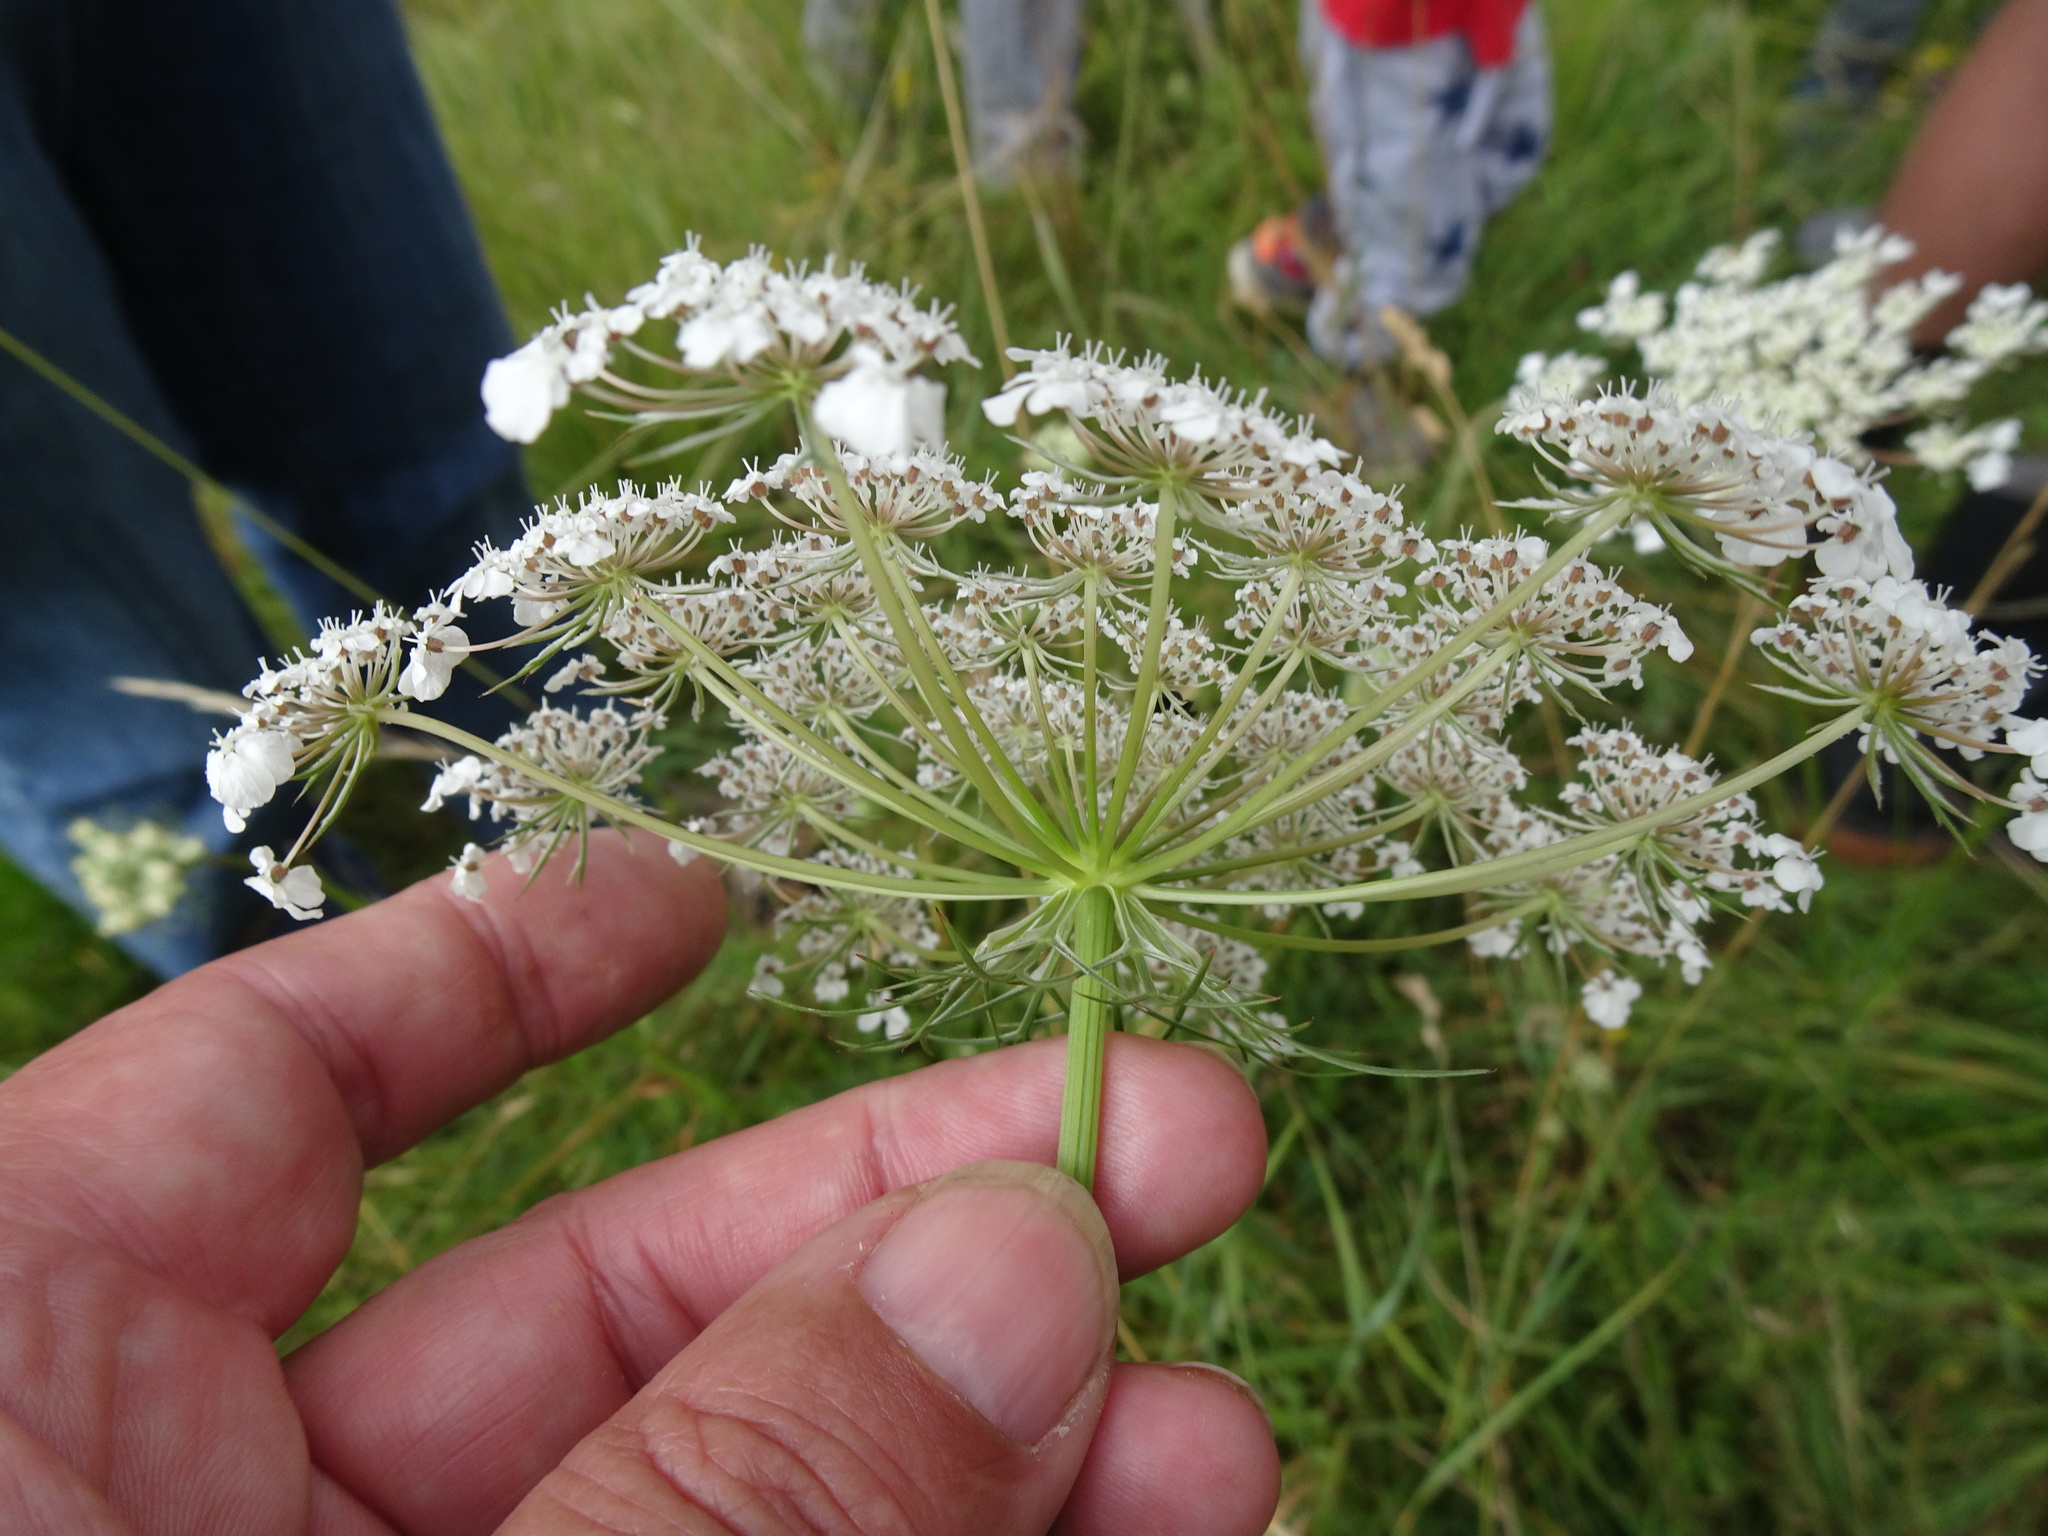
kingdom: Plantae
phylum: Tracheophyta
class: Magnoliopsida
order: Apiales
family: Apiaceae
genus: Daucus
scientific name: Daucus carota
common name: Wild carrot
